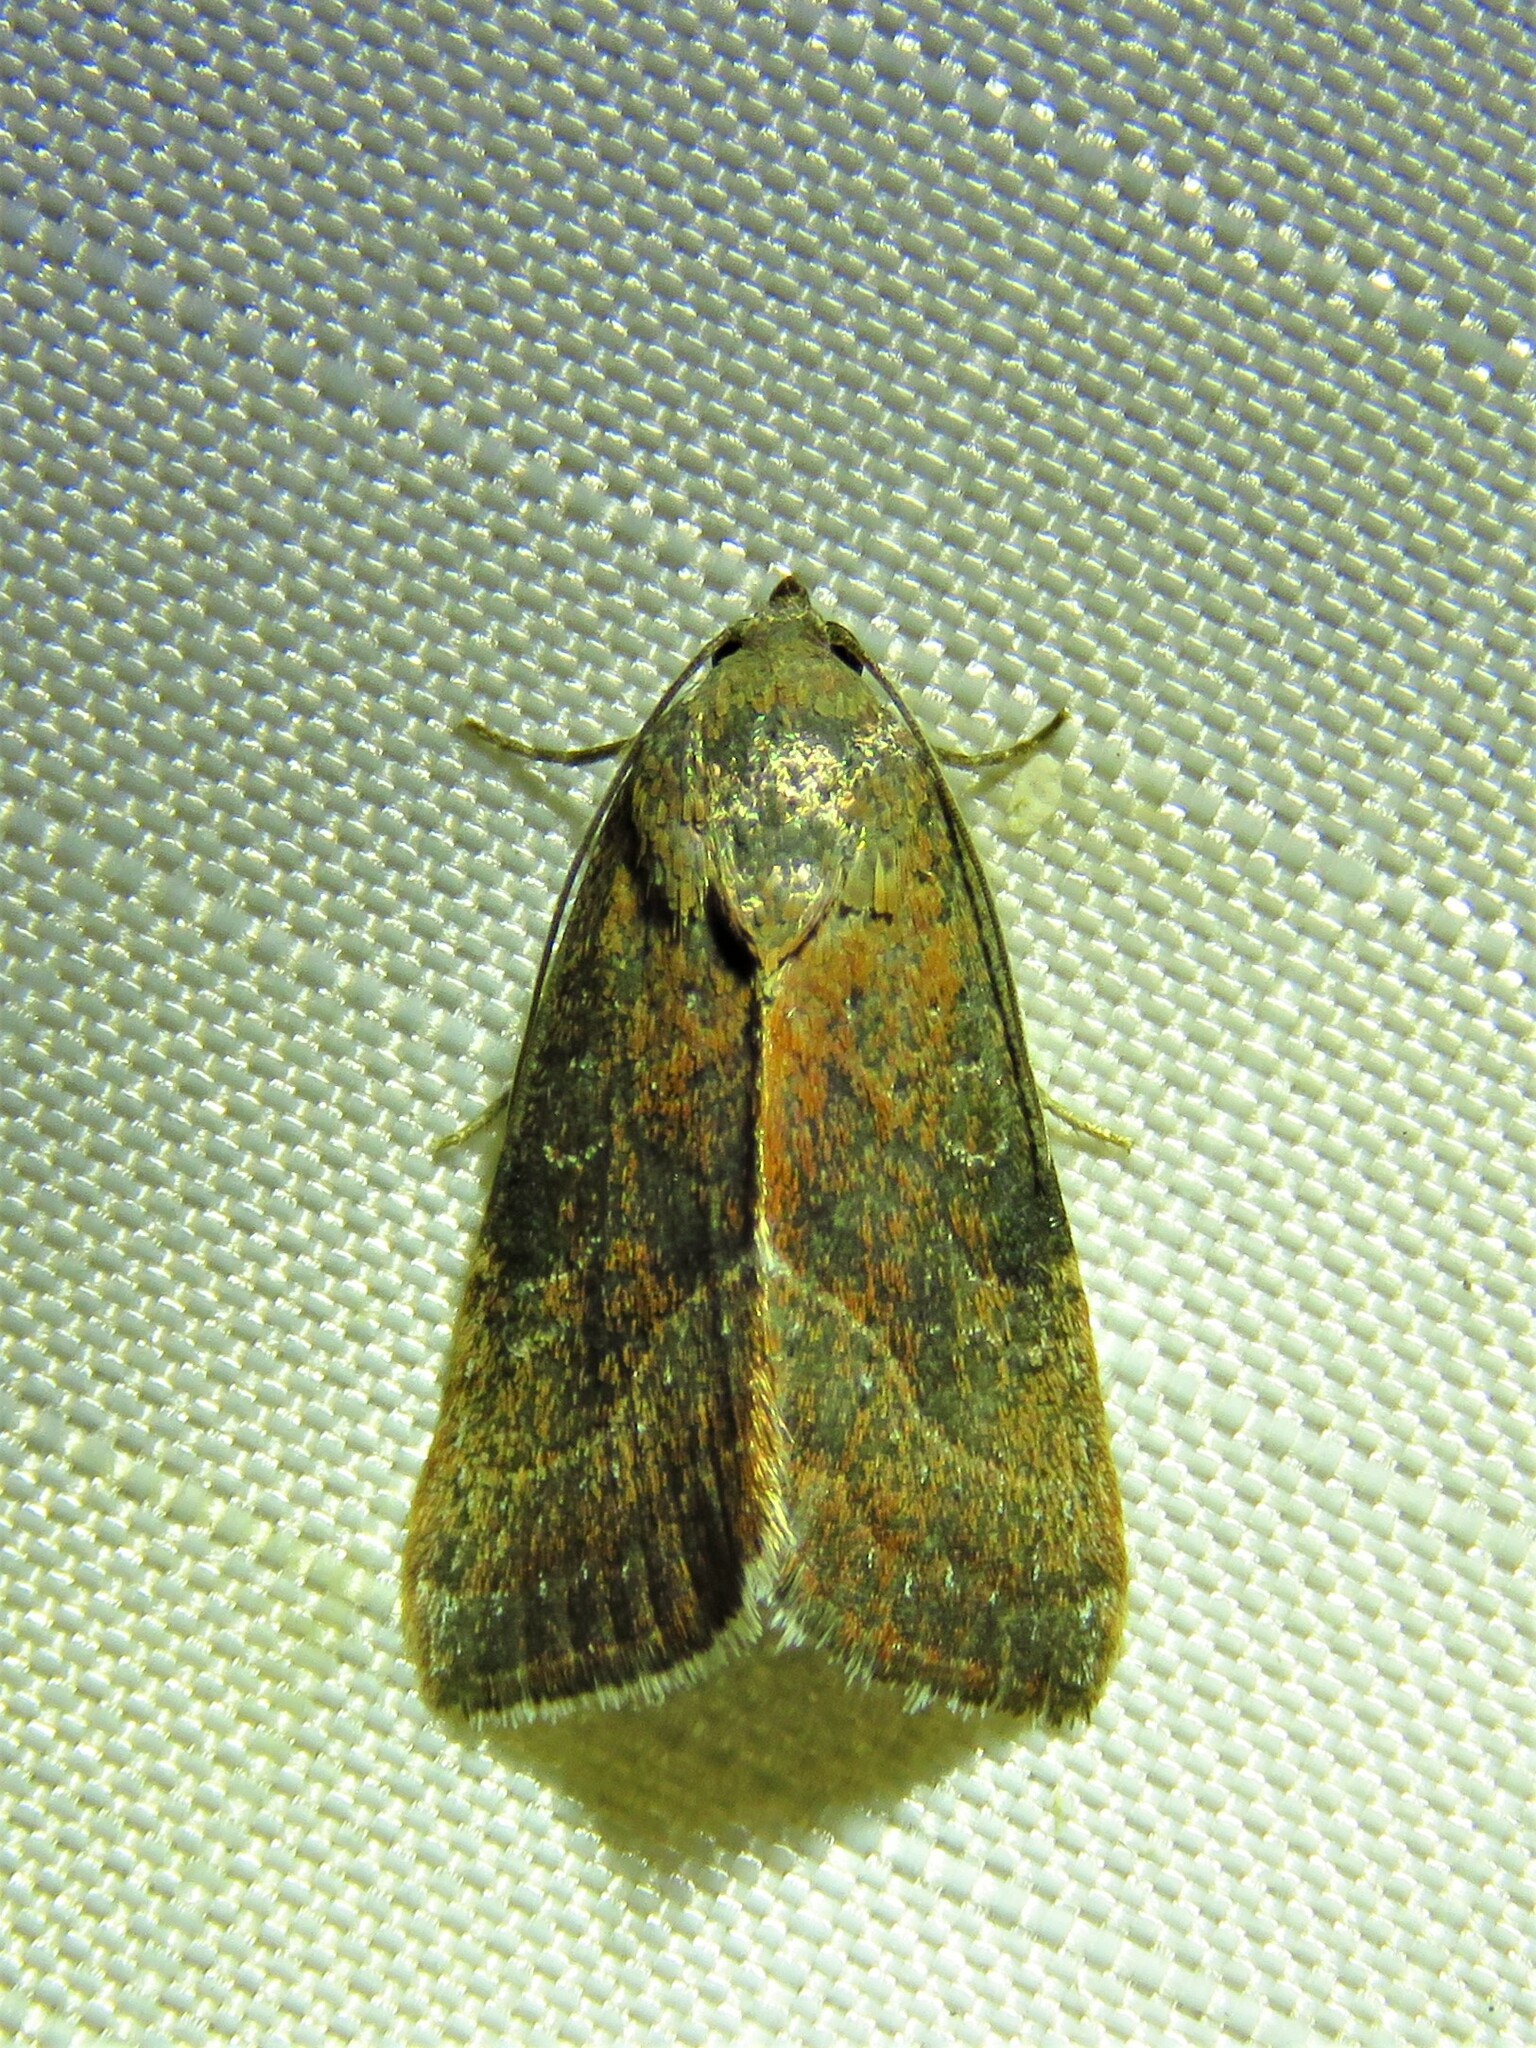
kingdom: Animalia
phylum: Arthropoda
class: Insecta
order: Lepidoptera
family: Noctuidae
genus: Galgula
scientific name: Galgula partita
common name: Wedgeling
